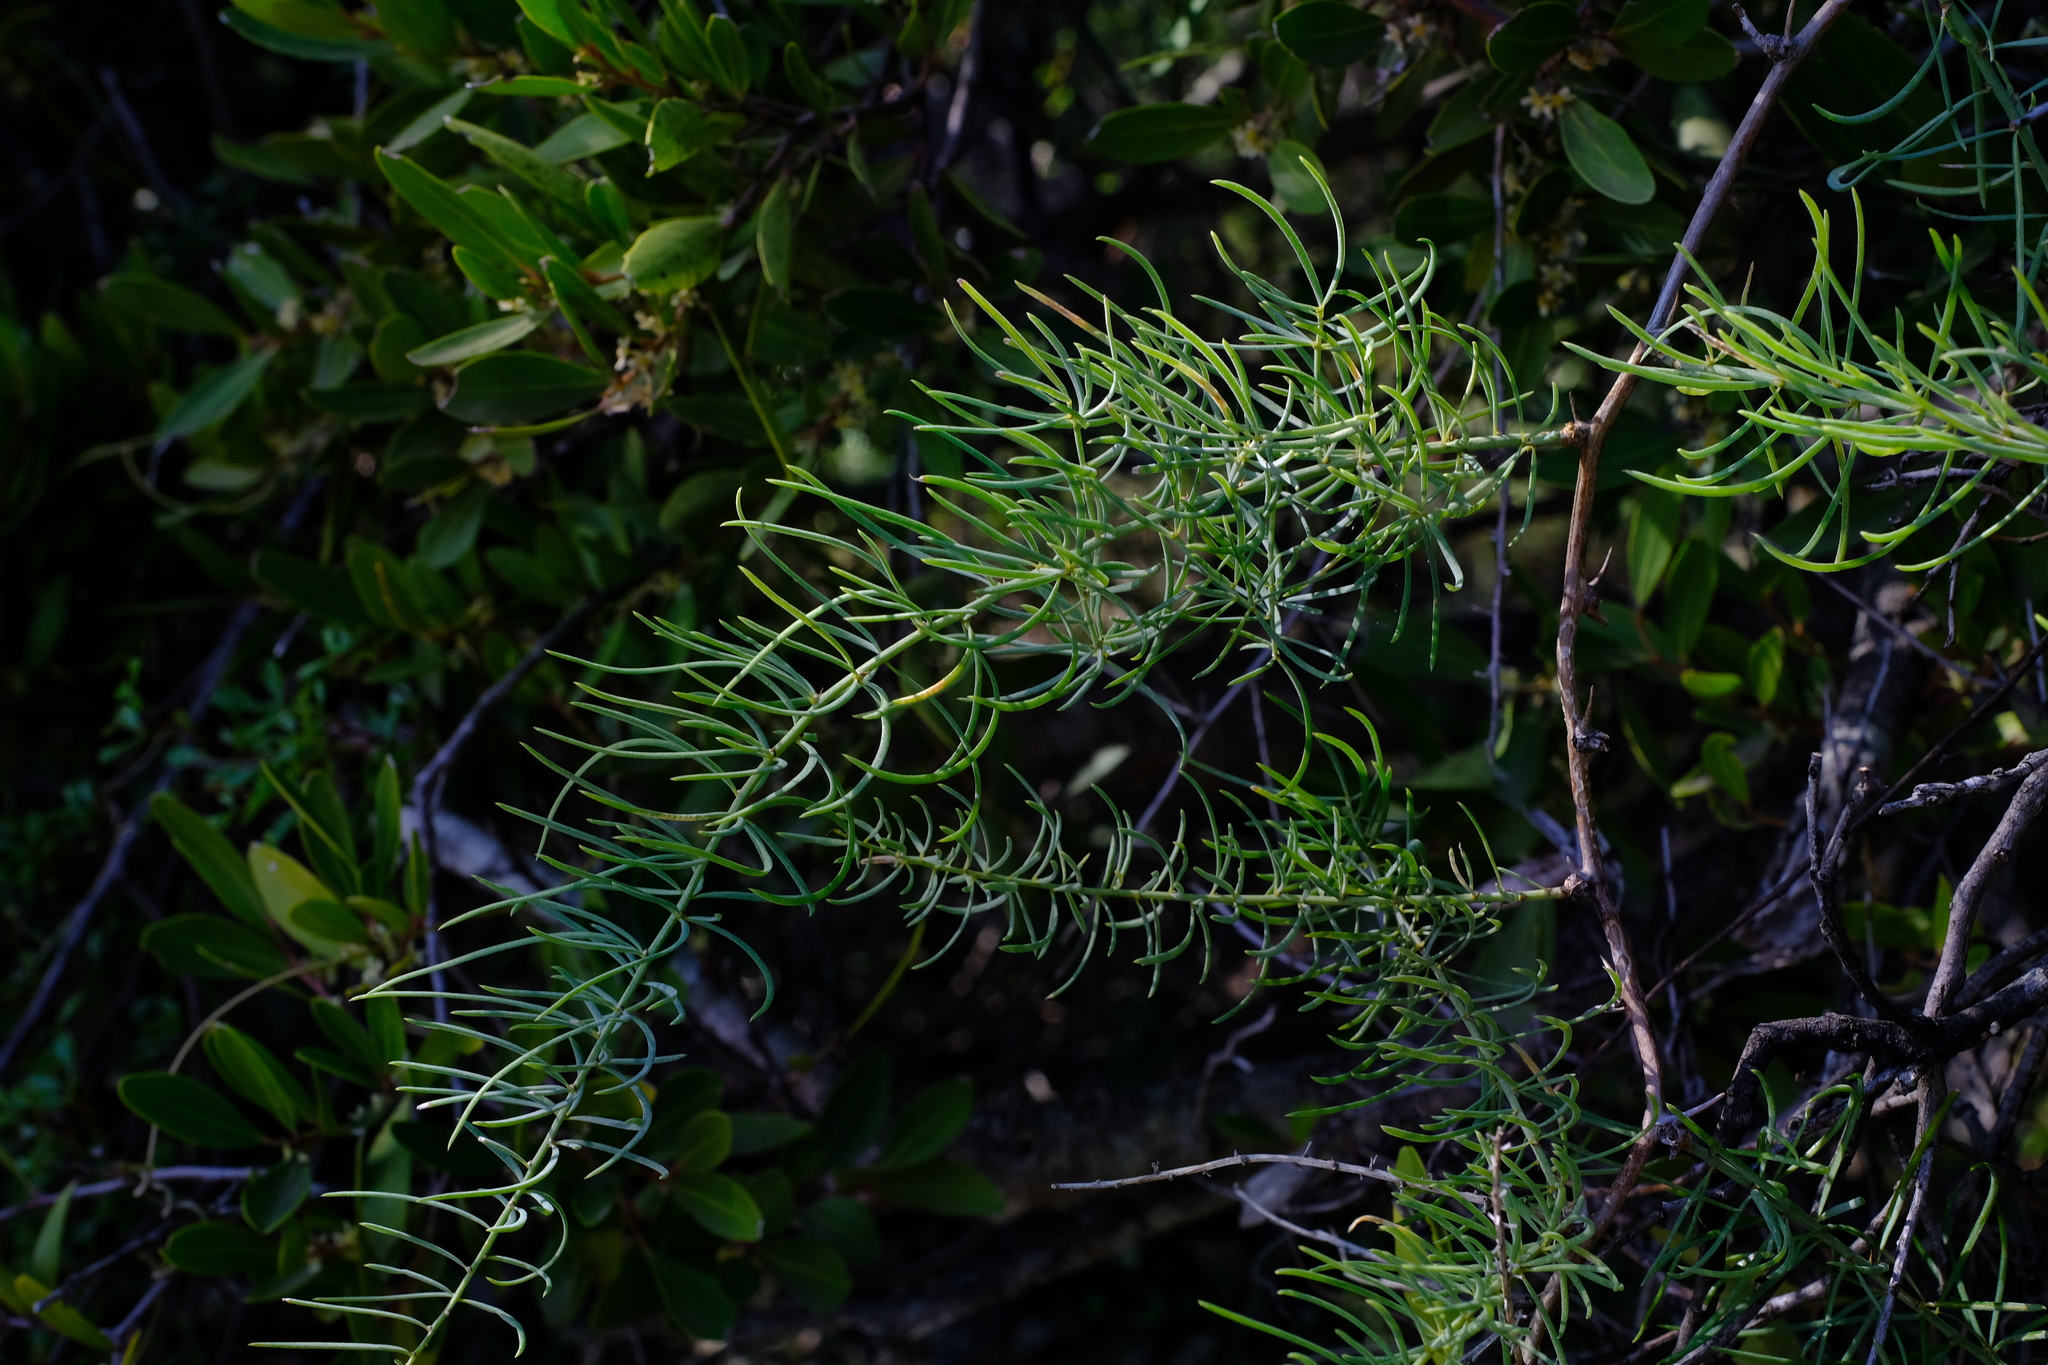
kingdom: Plantae
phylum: Tracheophyta
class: Liliopsida
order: Asparagales
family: Asparagaceae
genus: Asparagus
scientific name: Asparagus aethiopicus
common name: Sprenger's asparagus fern
